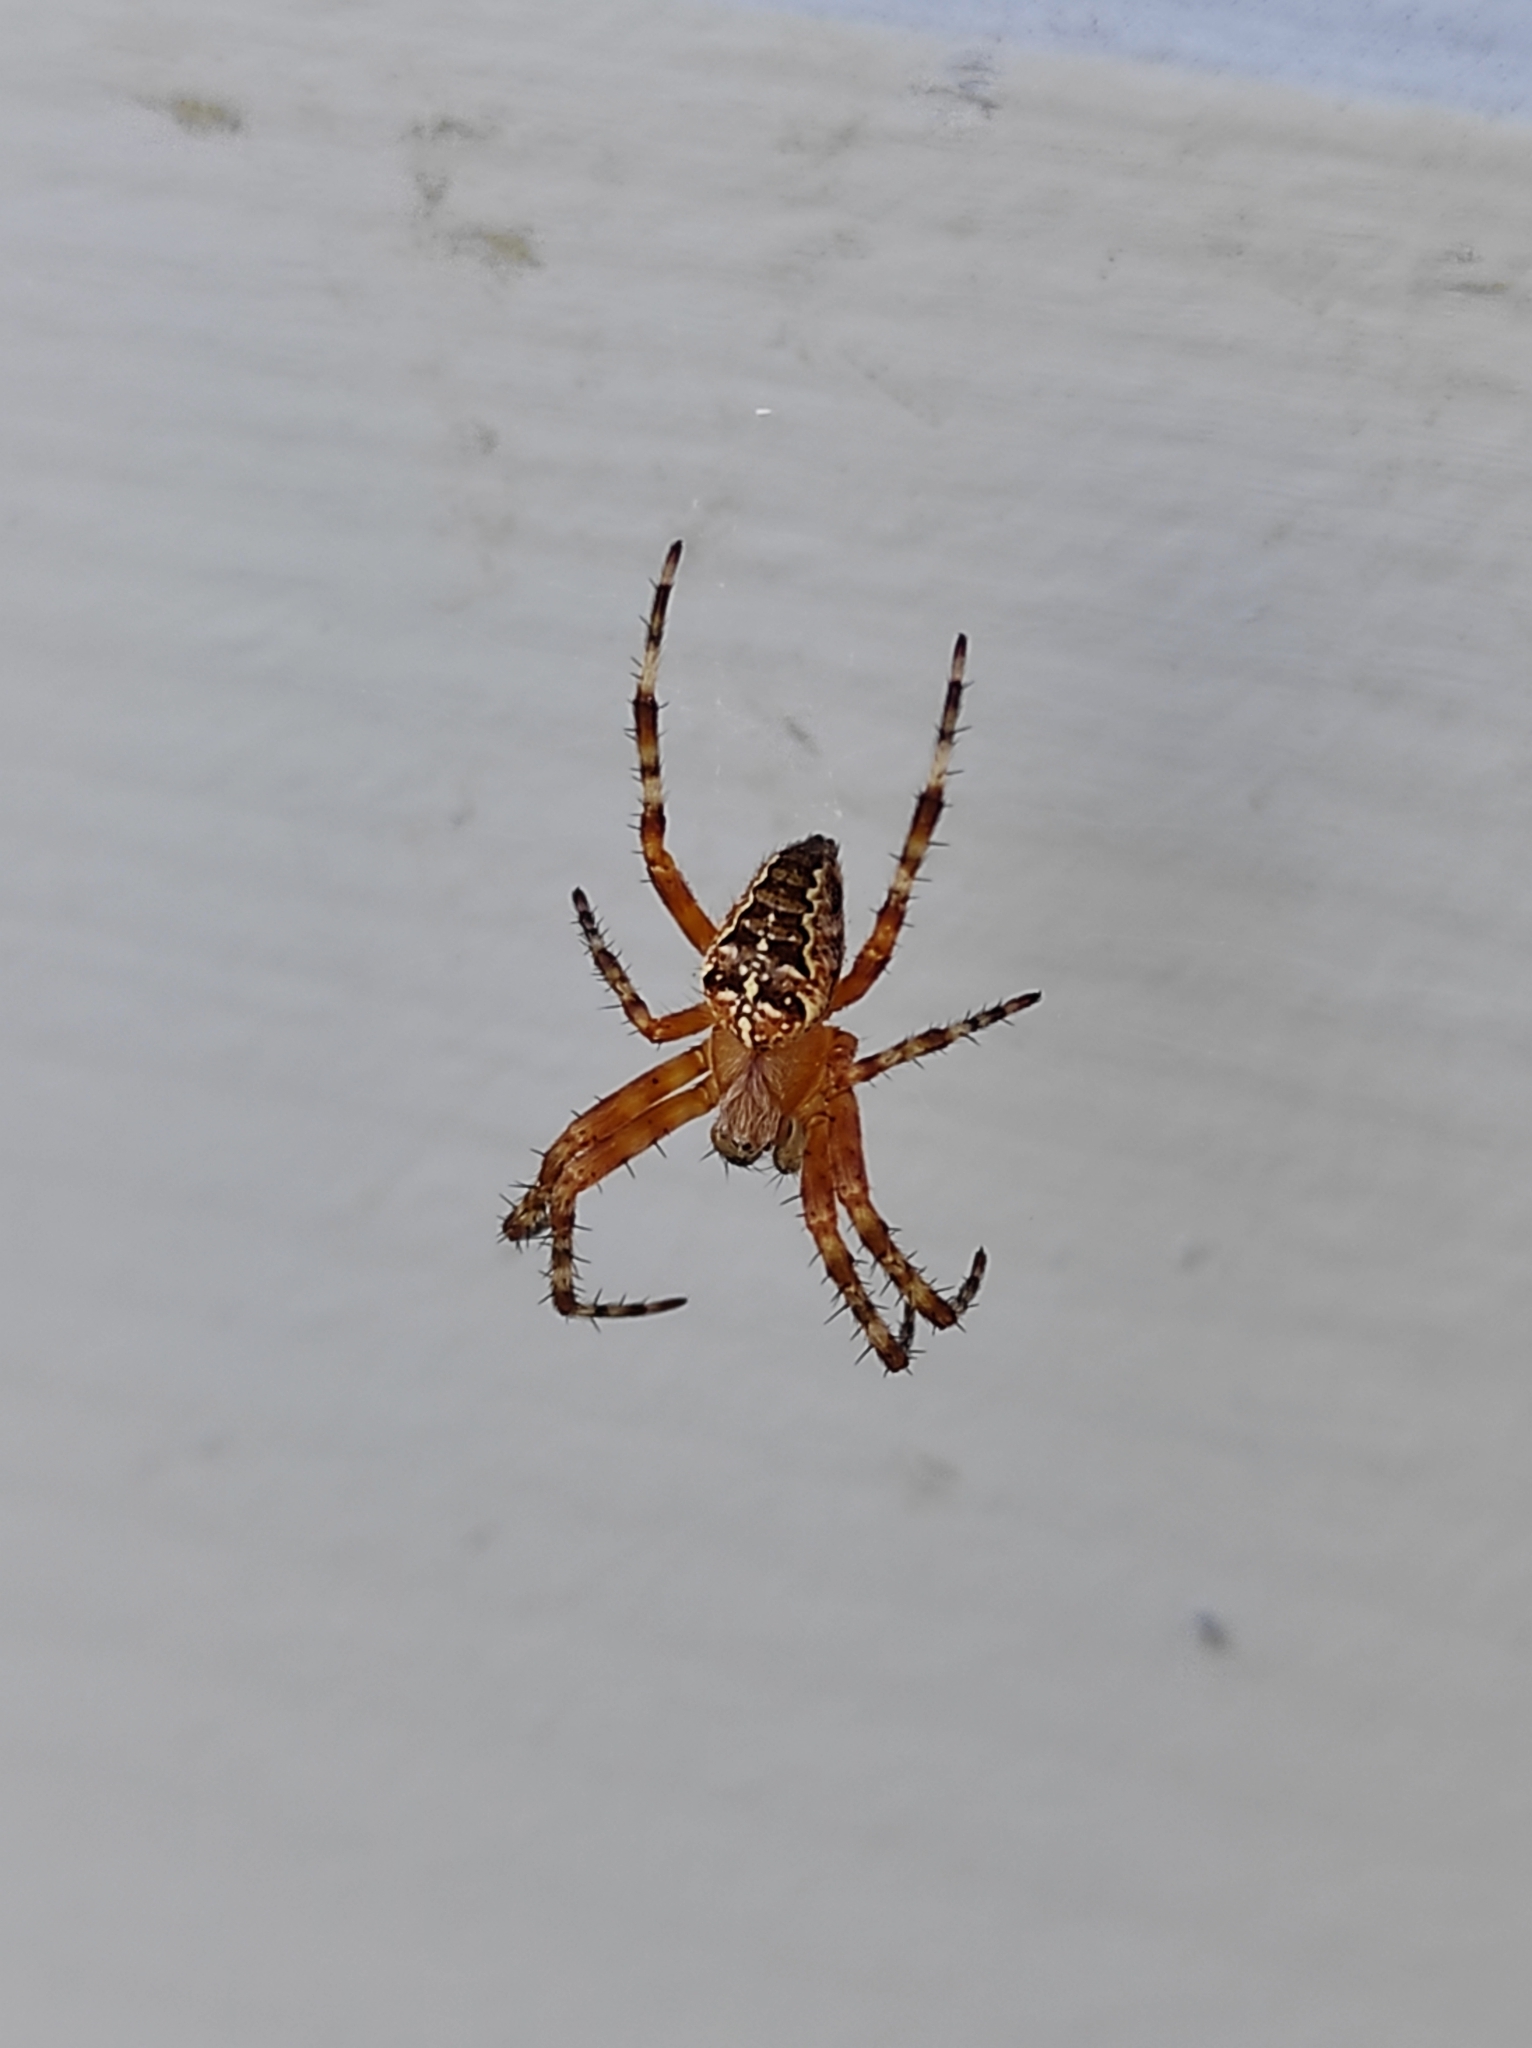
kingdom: Animalia
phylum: Arthropoda
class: Arachnida
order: Araneae
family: Araneidae
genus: Araneus
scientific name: Araneus diadematus
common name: Cross orbweaver
